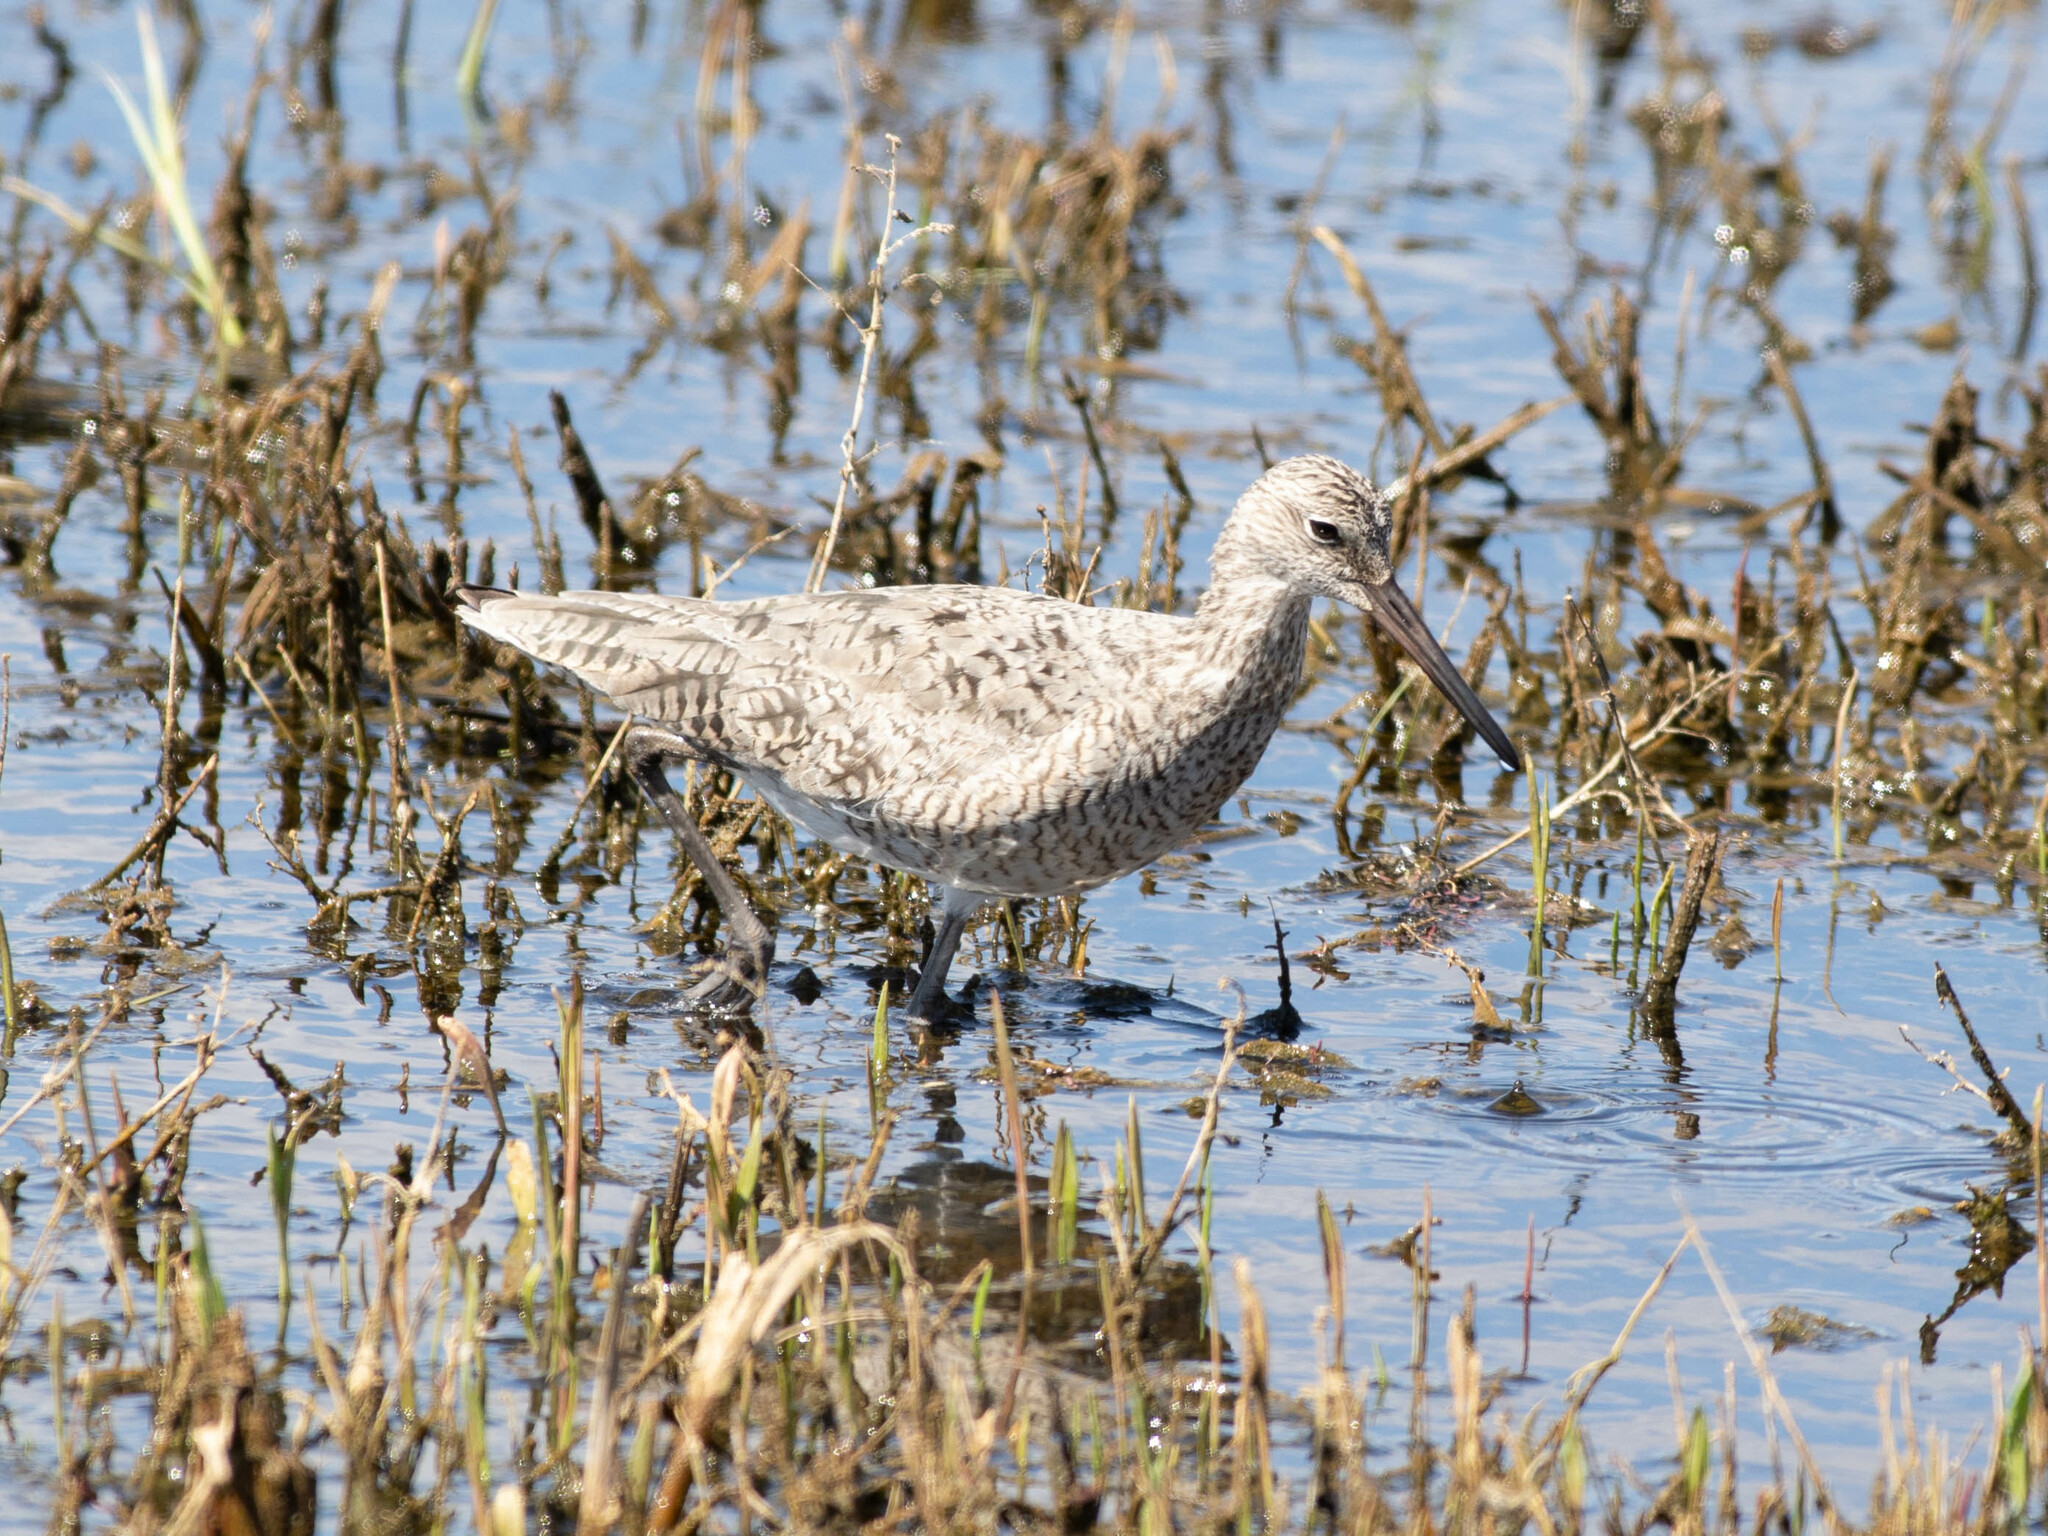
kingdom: Animalia
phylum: Chordata
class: Aves
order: Charadriiformes
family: Scolopacidae
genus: Tringa
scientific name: Tringa semipalmata
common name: Willet
